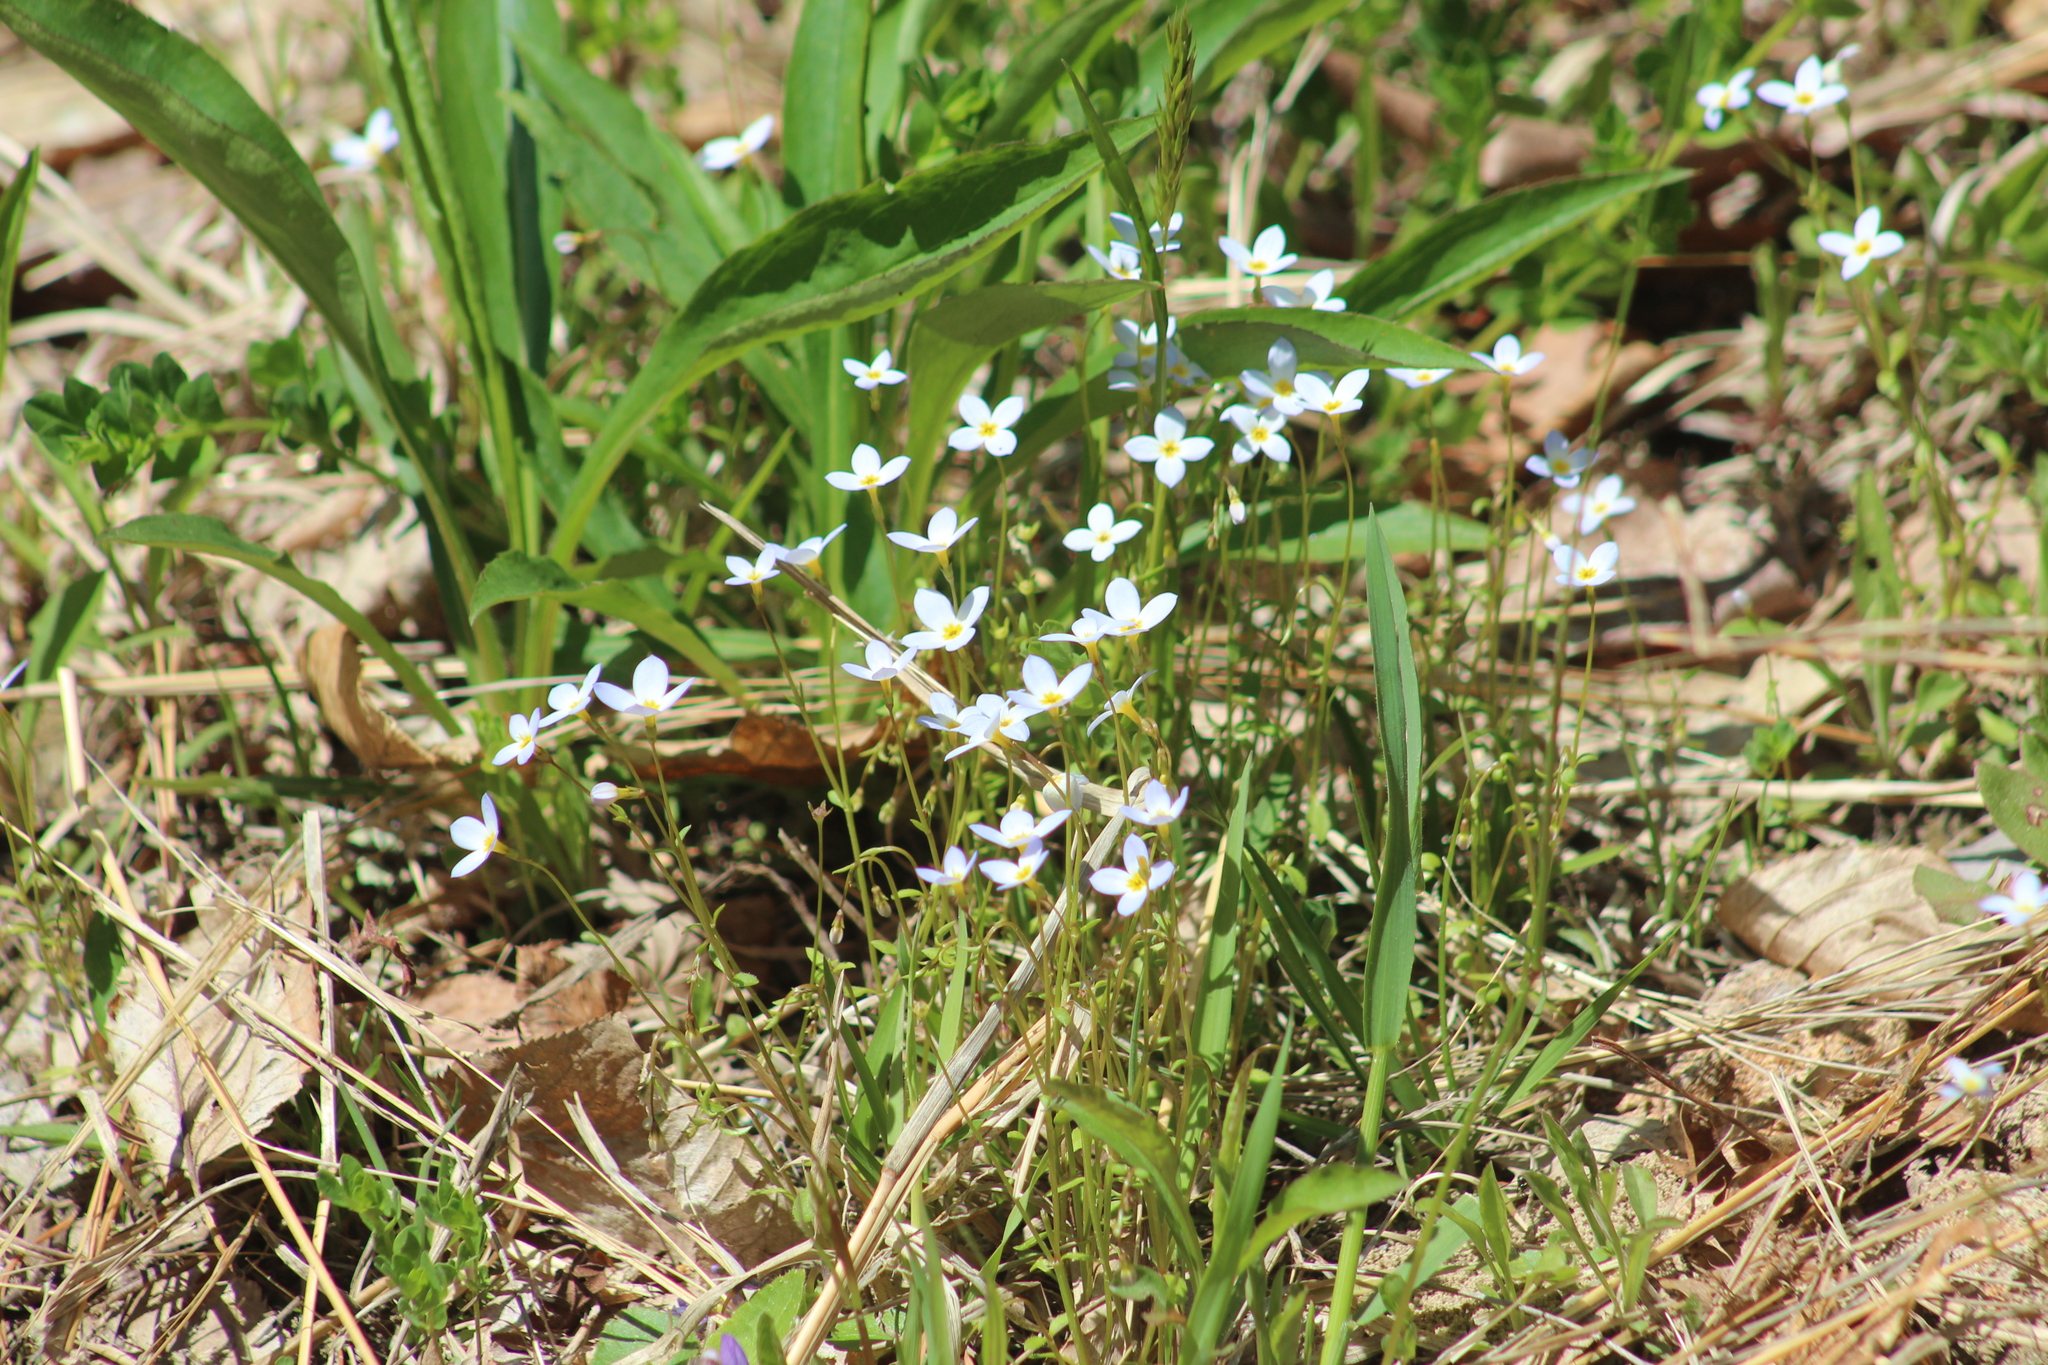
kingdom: Plantae
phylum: Tracheophyta
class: Magnoliopsida
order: Gentianales
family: Rubiaceae
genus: Houstonia
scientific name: Houstonia caerulea
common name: Bluets
